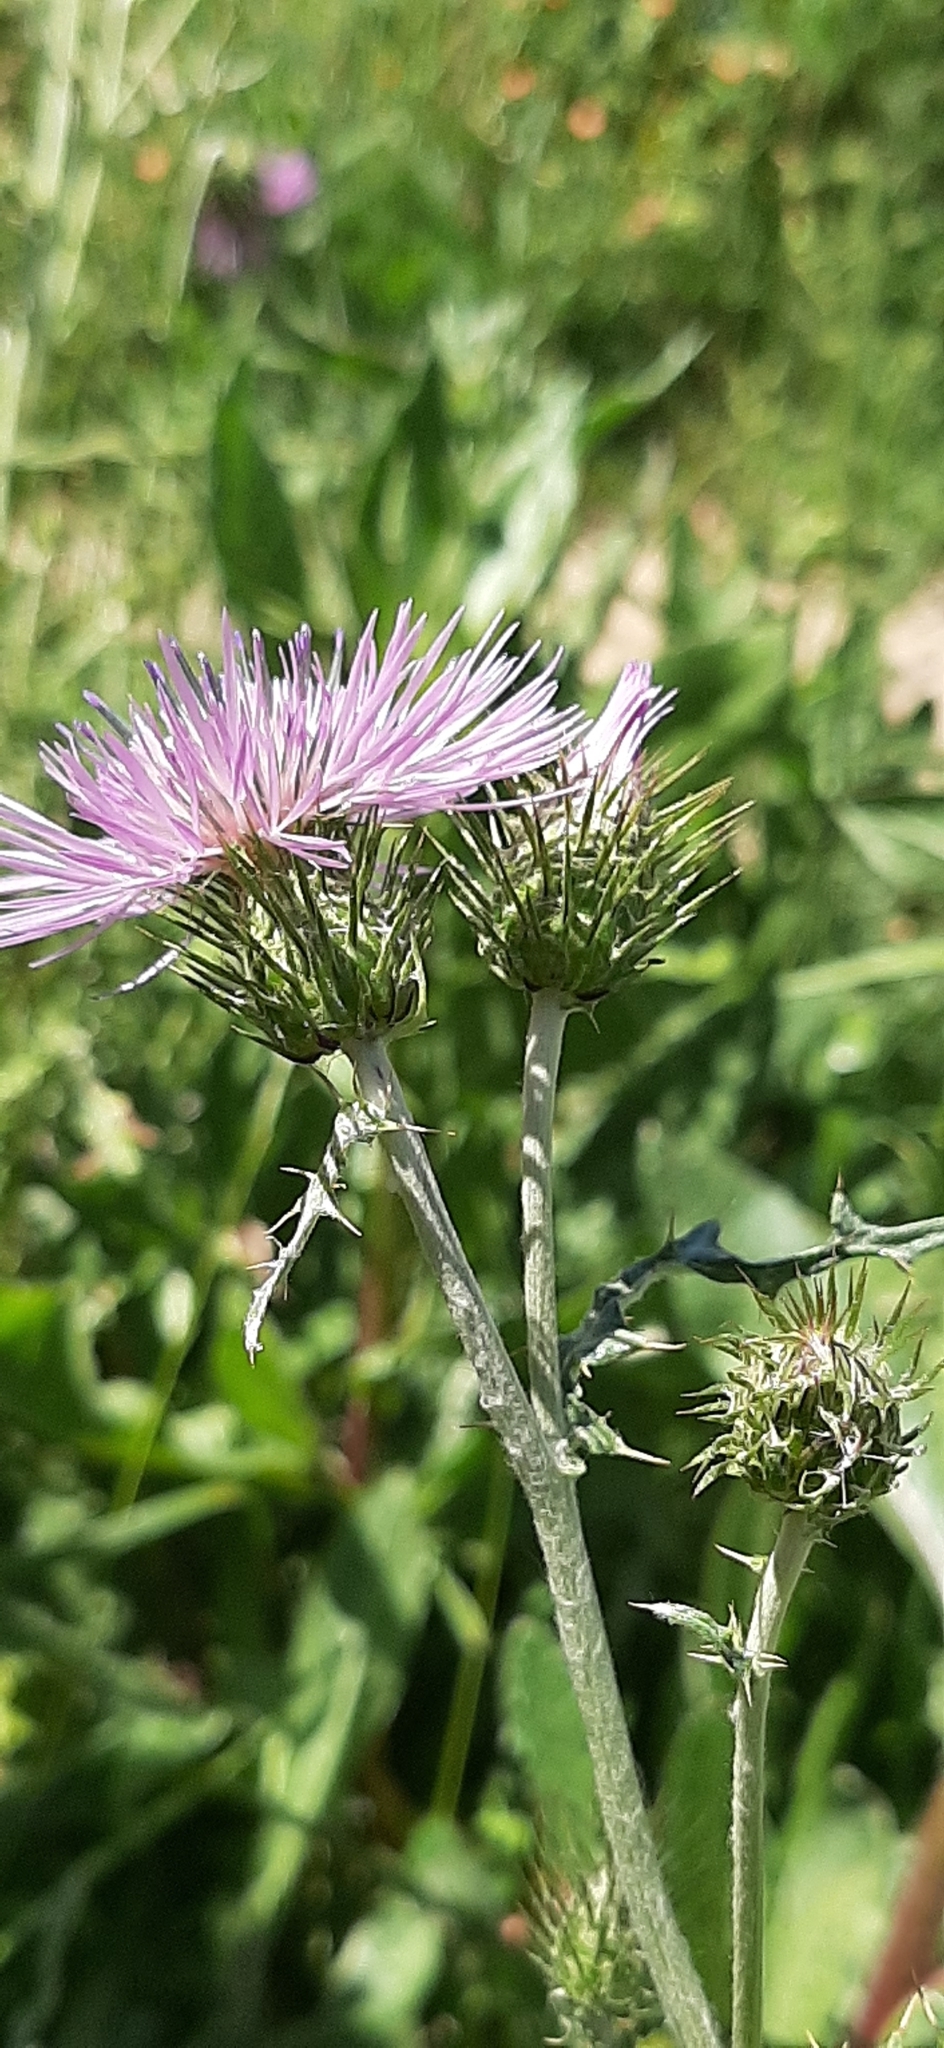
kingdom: Plantae
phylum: Tracheophyta
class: Magnoliopsida
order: Asterales
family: Asteraceae
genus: Galactites
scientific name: Galactites tomentosa
